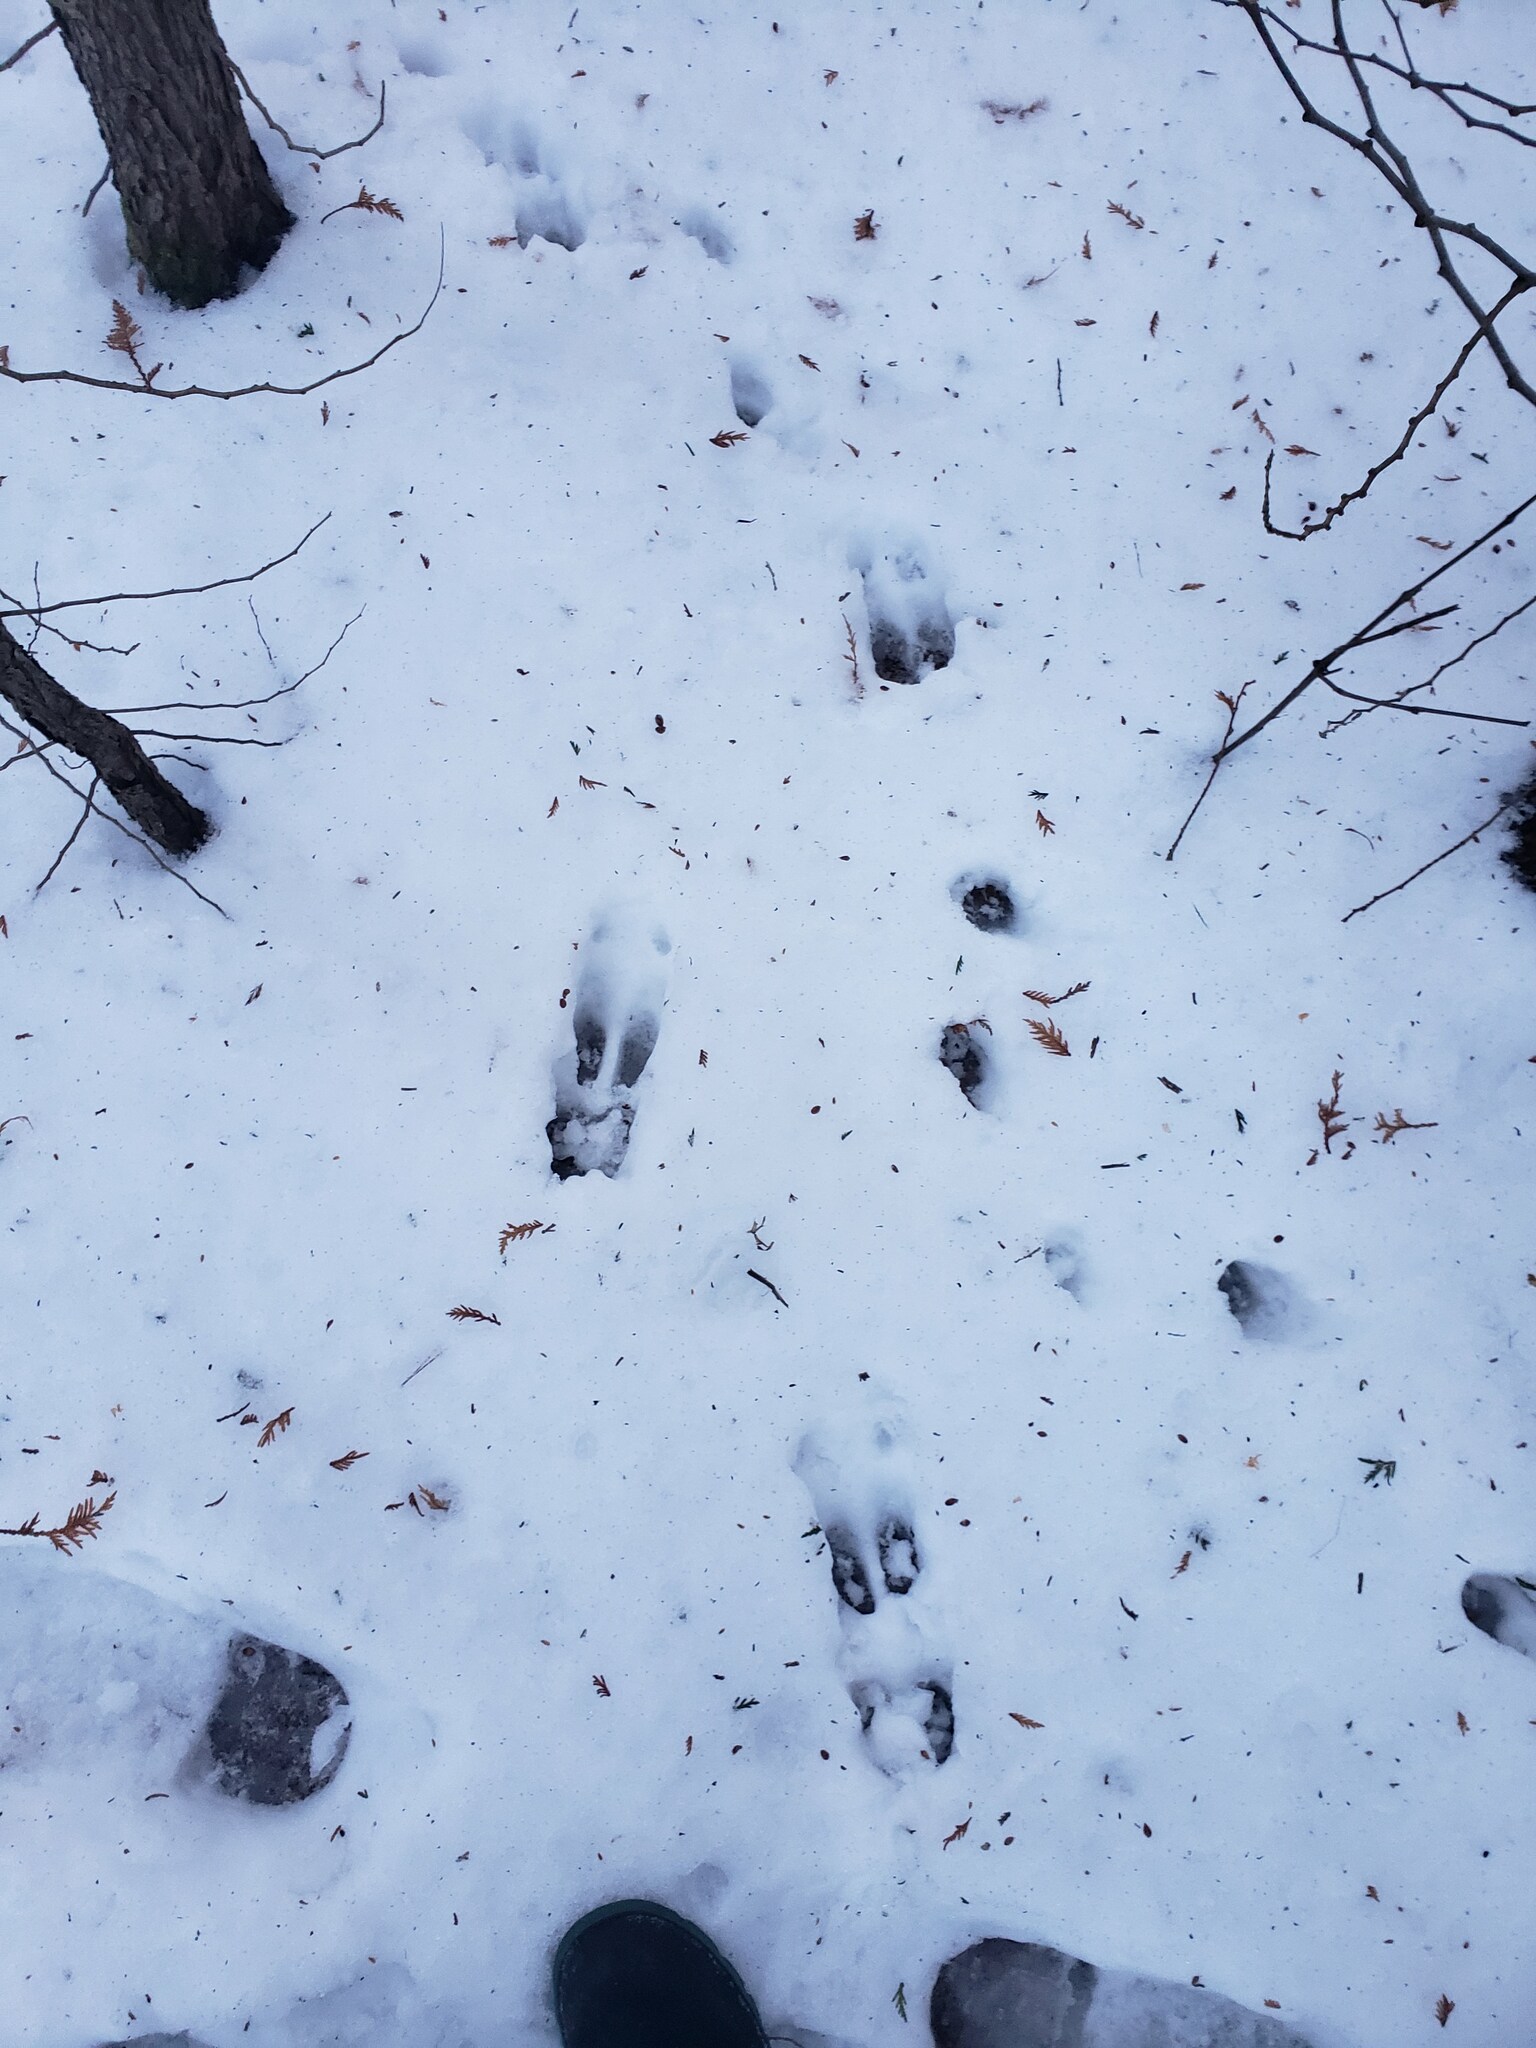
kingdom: Animalia
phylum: Chordata
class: Mammalia
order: Artiodactyla
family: Cervidae
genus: Odocoileus
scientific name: Odocoileus virginianus
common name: White-tailed deer
